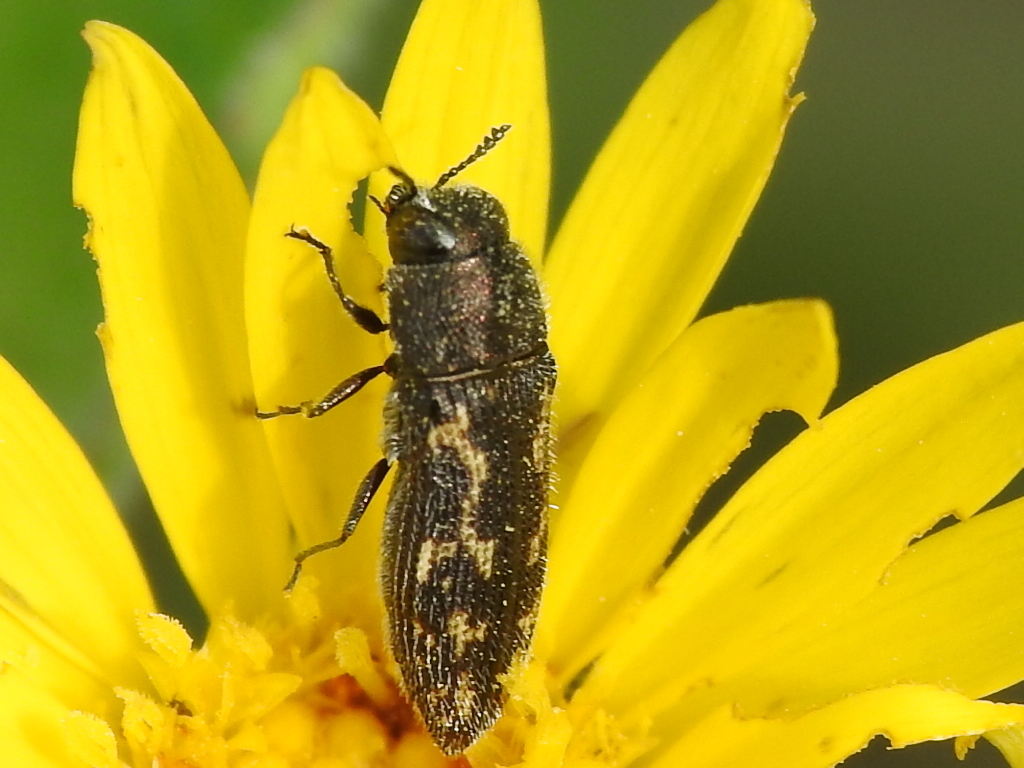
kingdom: Animalia
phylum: Arthropoda
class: Insecta
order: Coleoptera
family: Buprestidae
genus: Acmaeodera
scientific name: Acmaeodera neglecta
